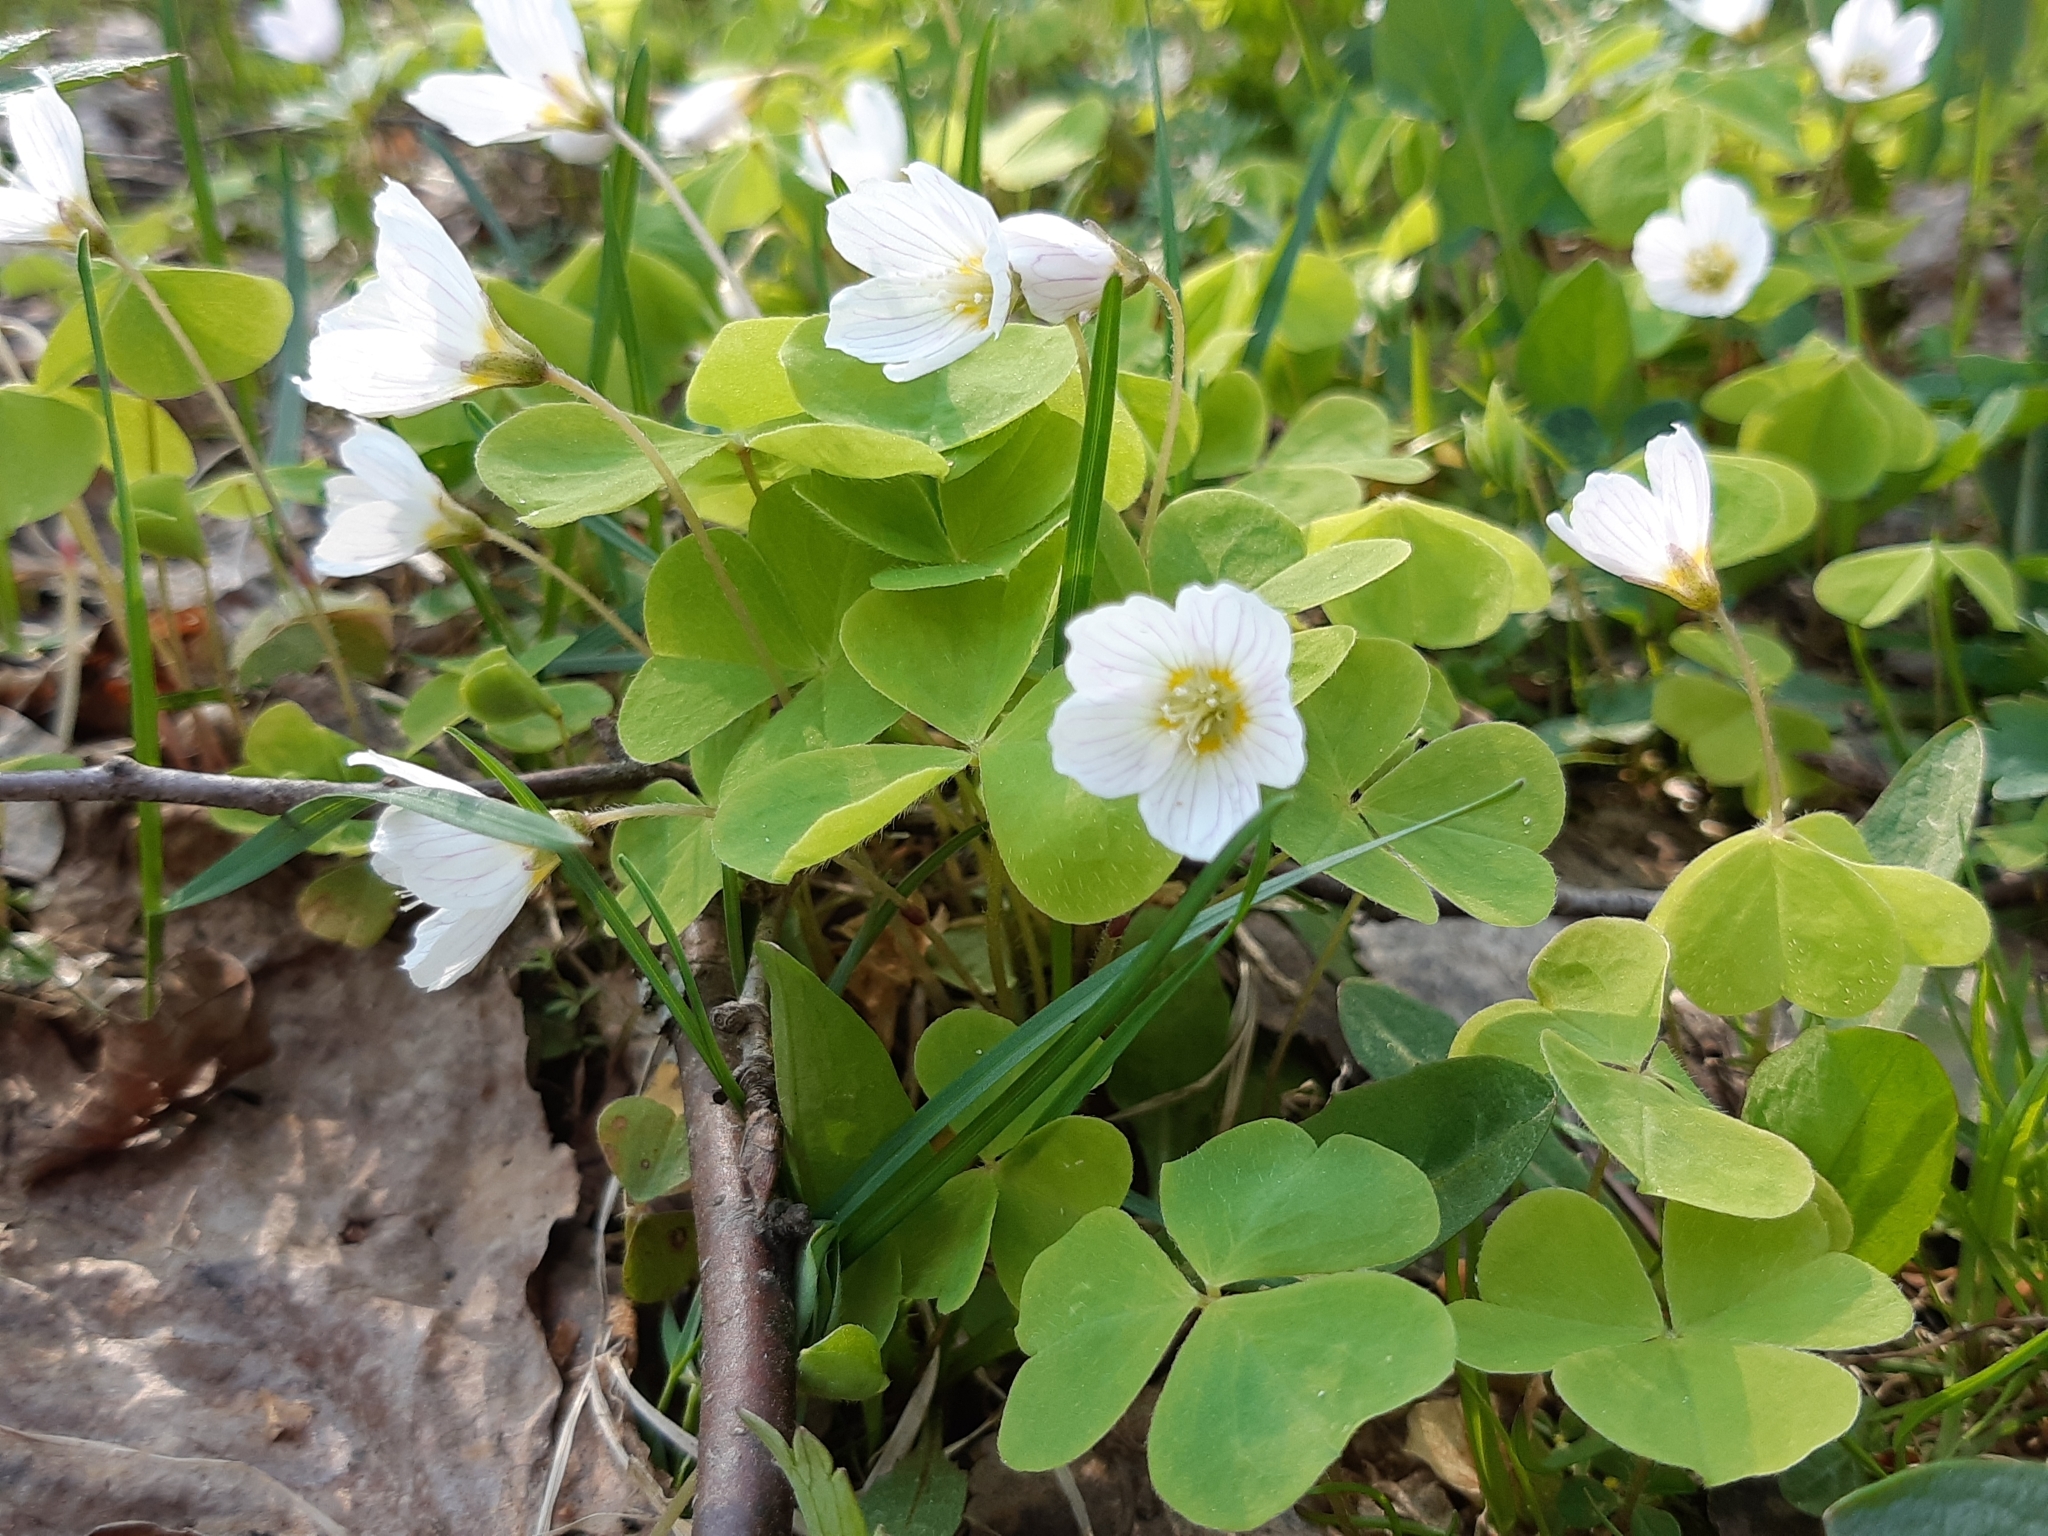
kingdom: Plantae
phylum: Tracheophyta
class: Magnoliopsida
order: Oxalidales
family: Oxalidaceae
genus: Oxalis
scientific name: Oxalis acetosella
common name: Wood-sorrel
